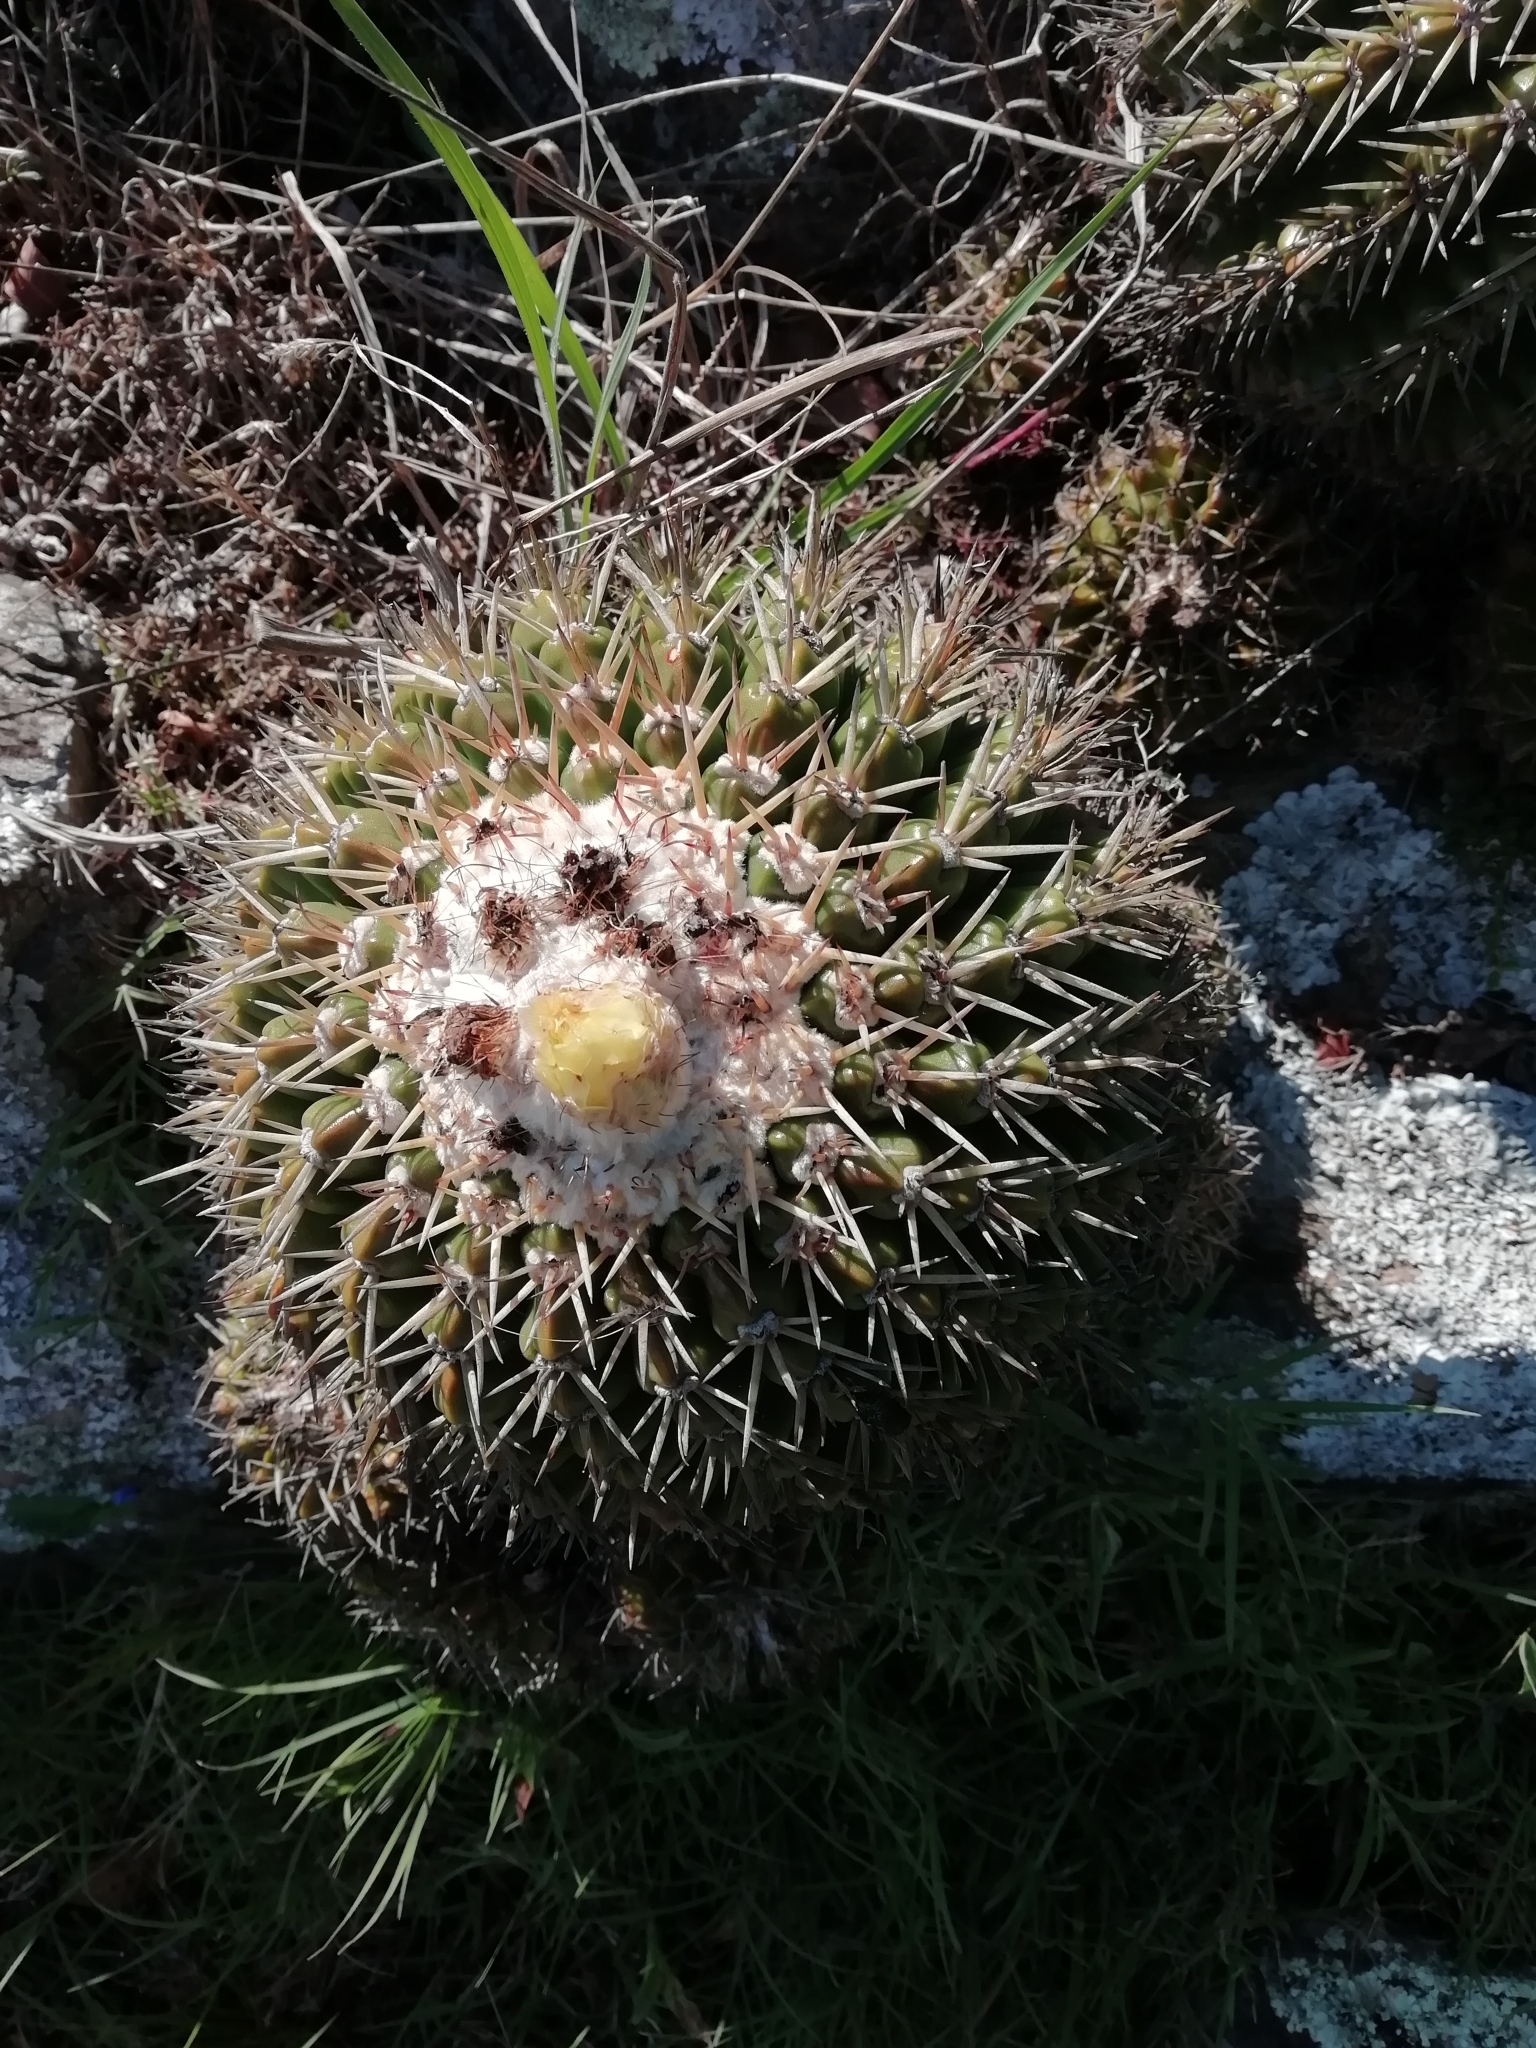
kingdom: Plantae
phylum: Tracheophyta
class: Magnoliopsida
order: Caryophyllales
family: Cactaceae
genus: Parodia
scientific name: Parodia erinacea
